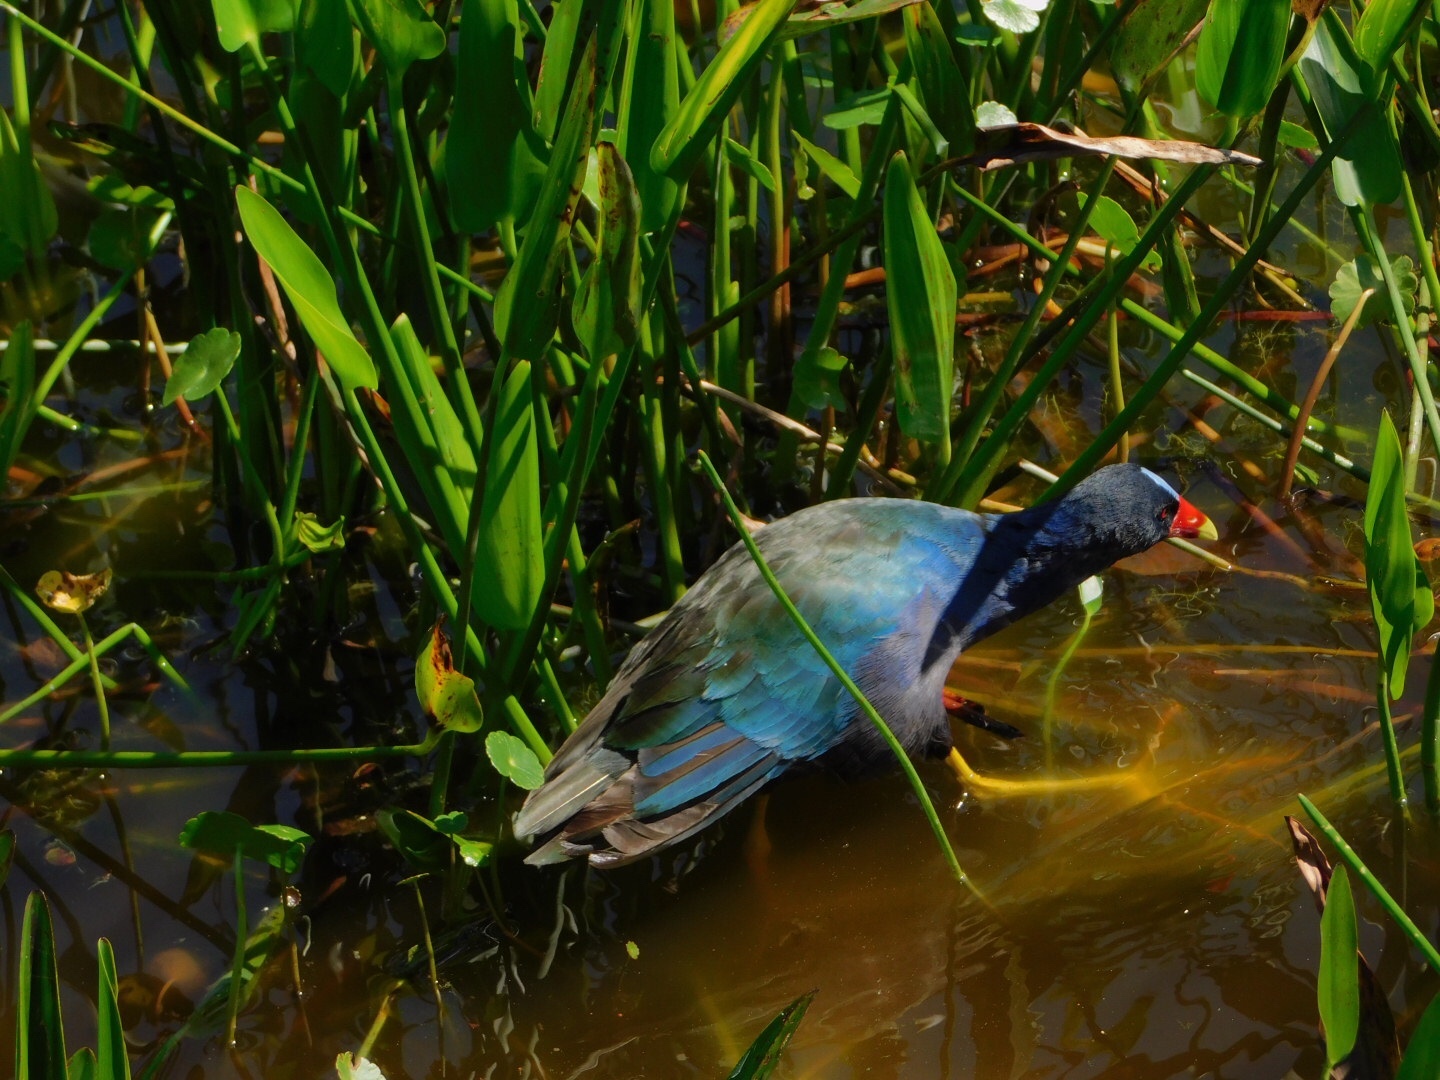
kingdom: Animalia
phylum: Chordata
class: Aves
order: Gruiformes
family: Rallidae
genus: Porphyrio
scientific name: Porphyrio martinica
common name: Purple gallinule
